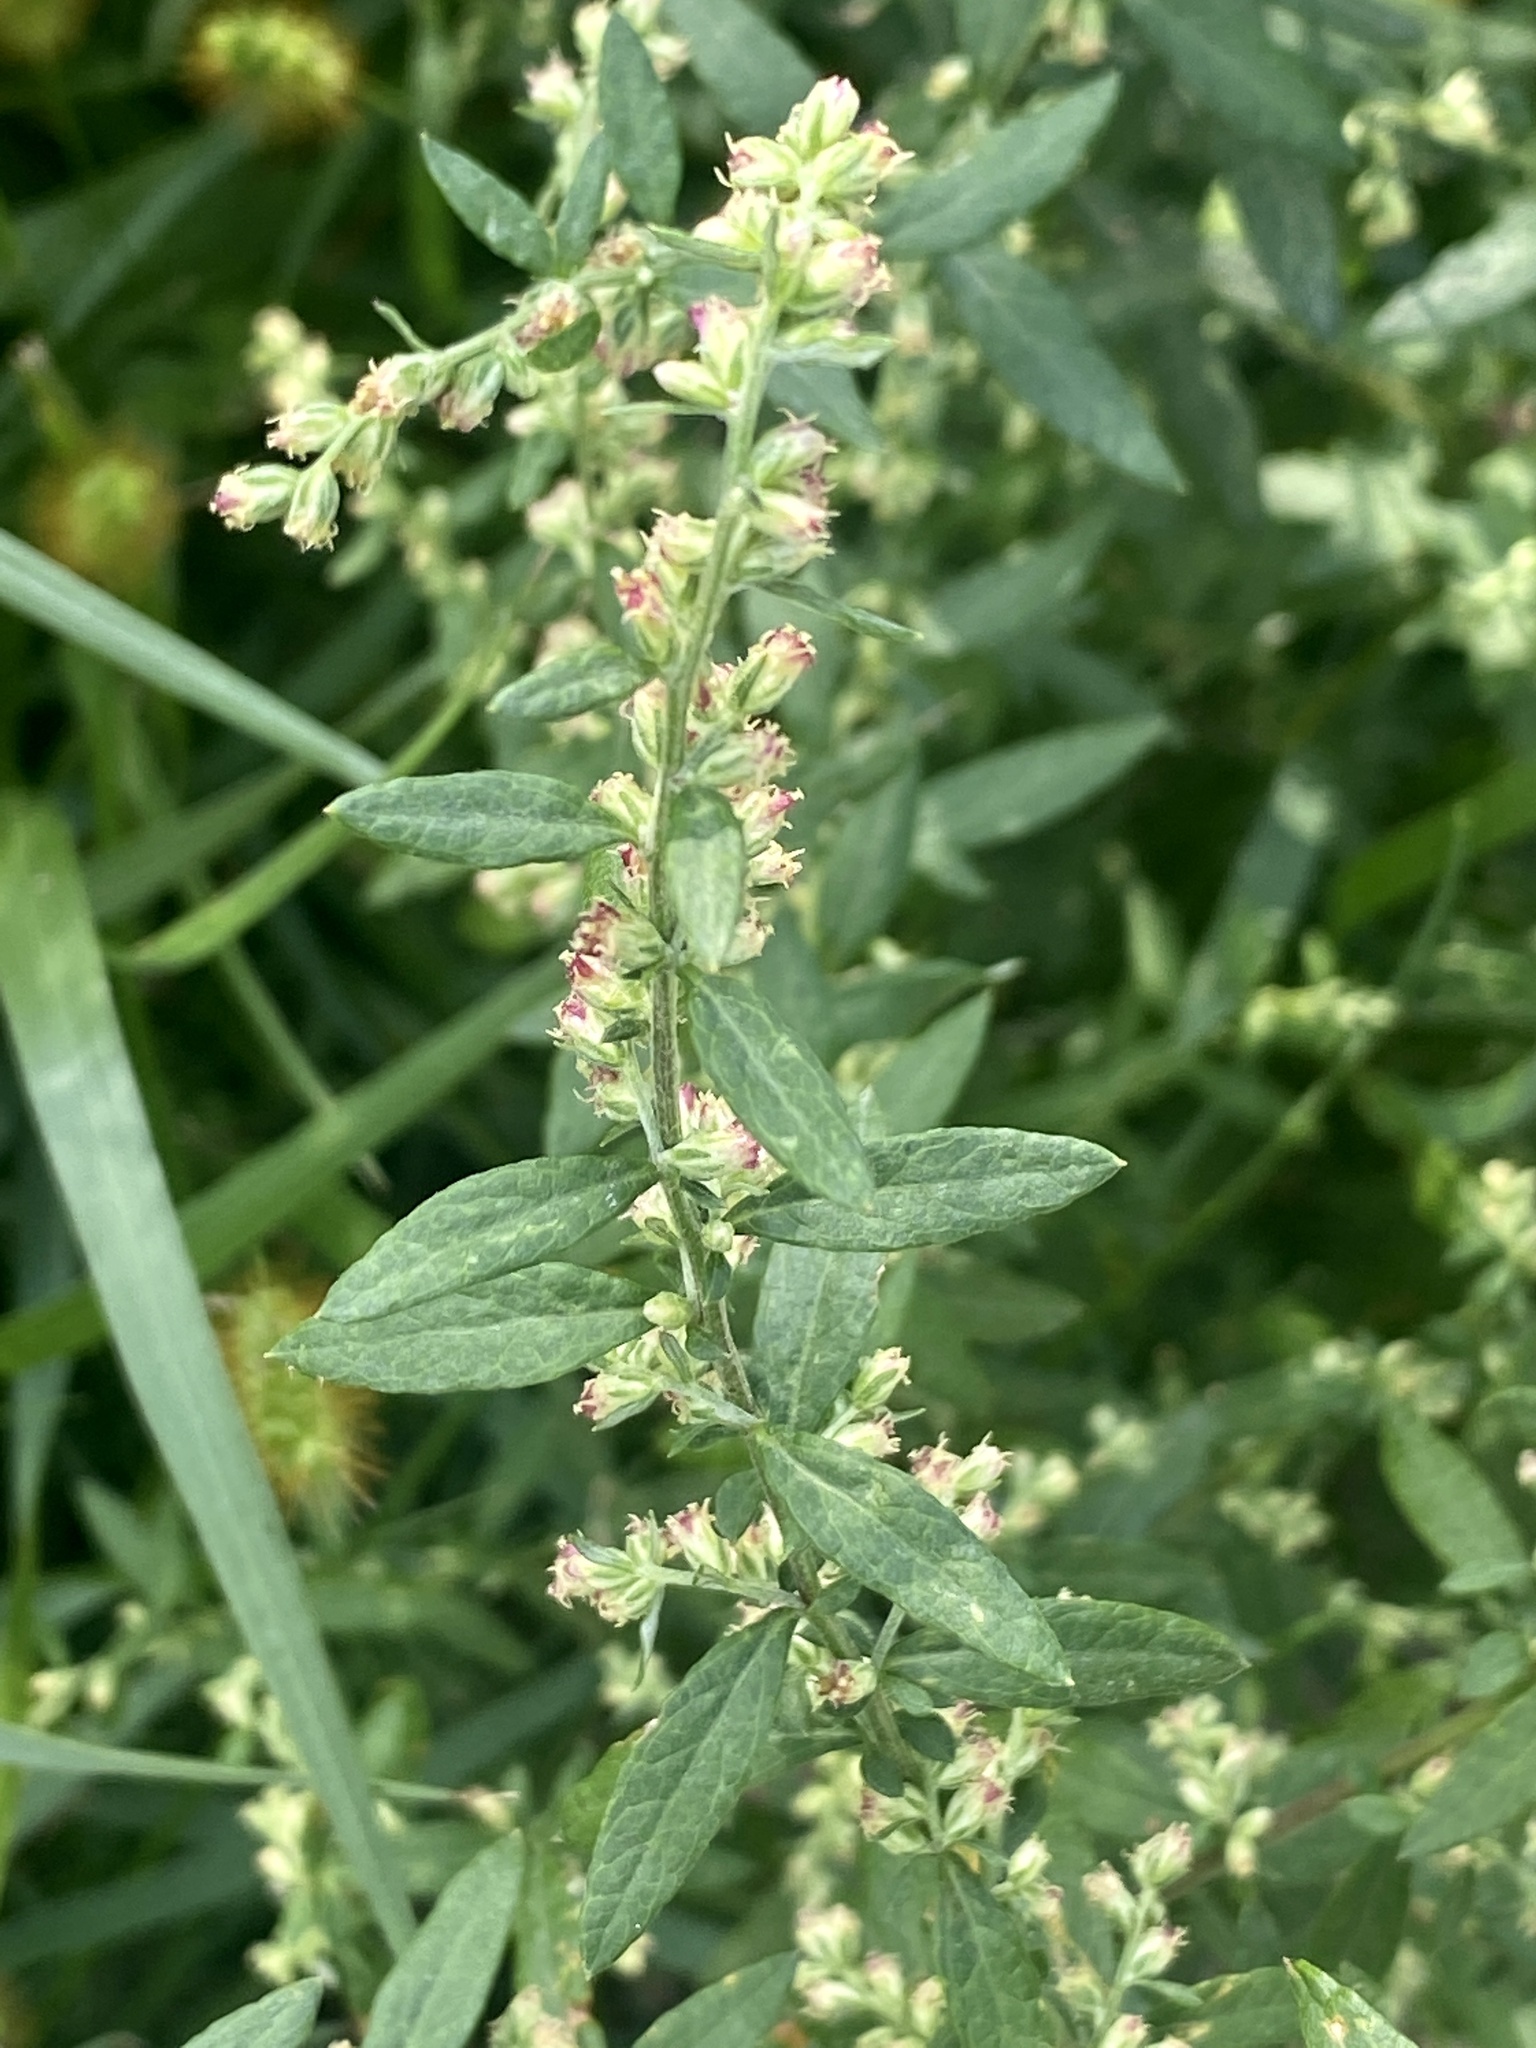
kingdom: Plantae
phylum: Tracheophyta
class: Magnoliopsida
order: Asterales
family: Asteraceae
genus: Artemisia
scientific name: Artemisia vulgaris
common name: Mugwort
